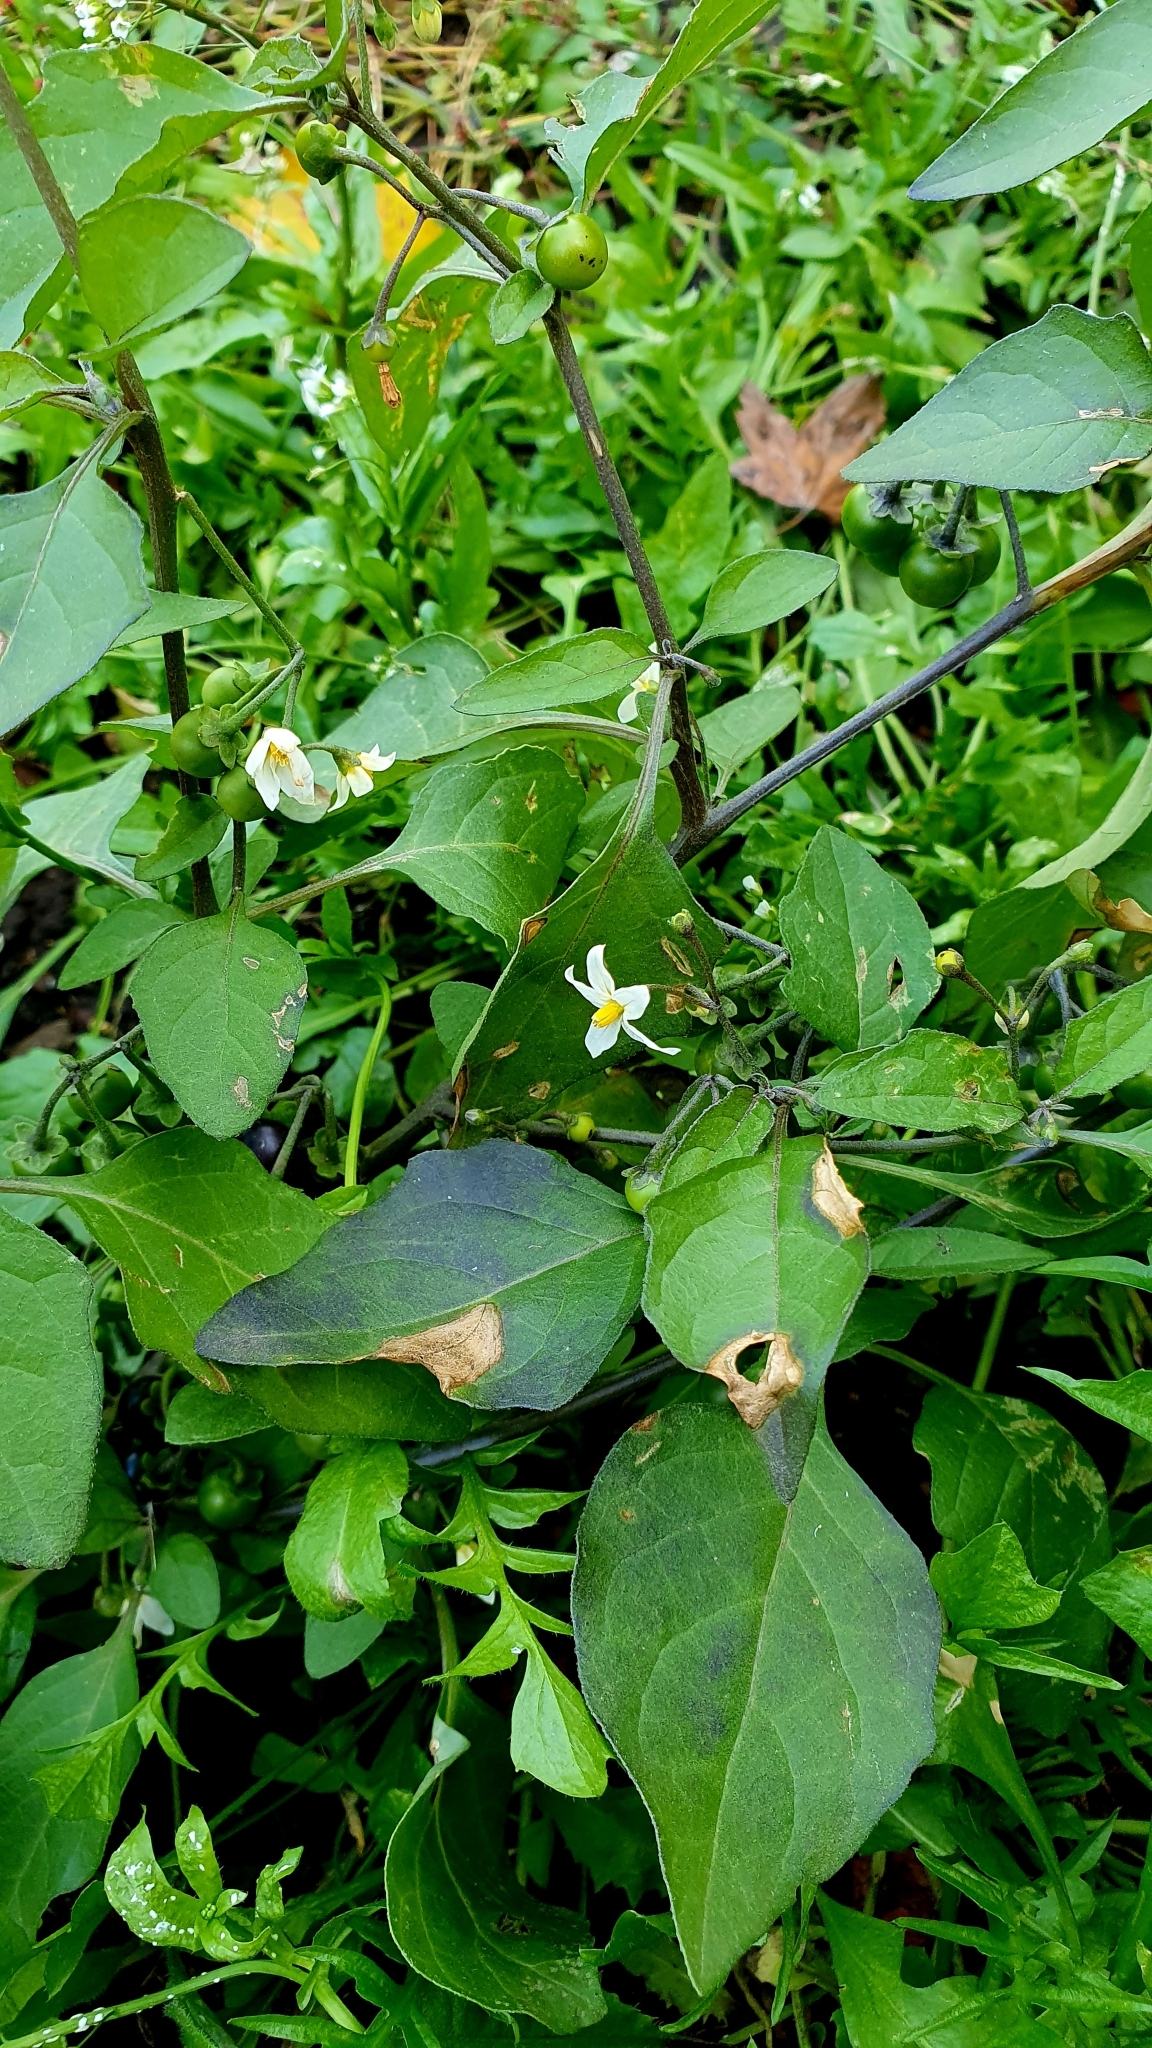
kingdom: Plantae
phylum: Tracheophyta
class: Magnoliopsida
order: Solanales
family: Solanaceae
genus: Solanum
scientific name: Solanum nigrum
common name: Black nightshade
